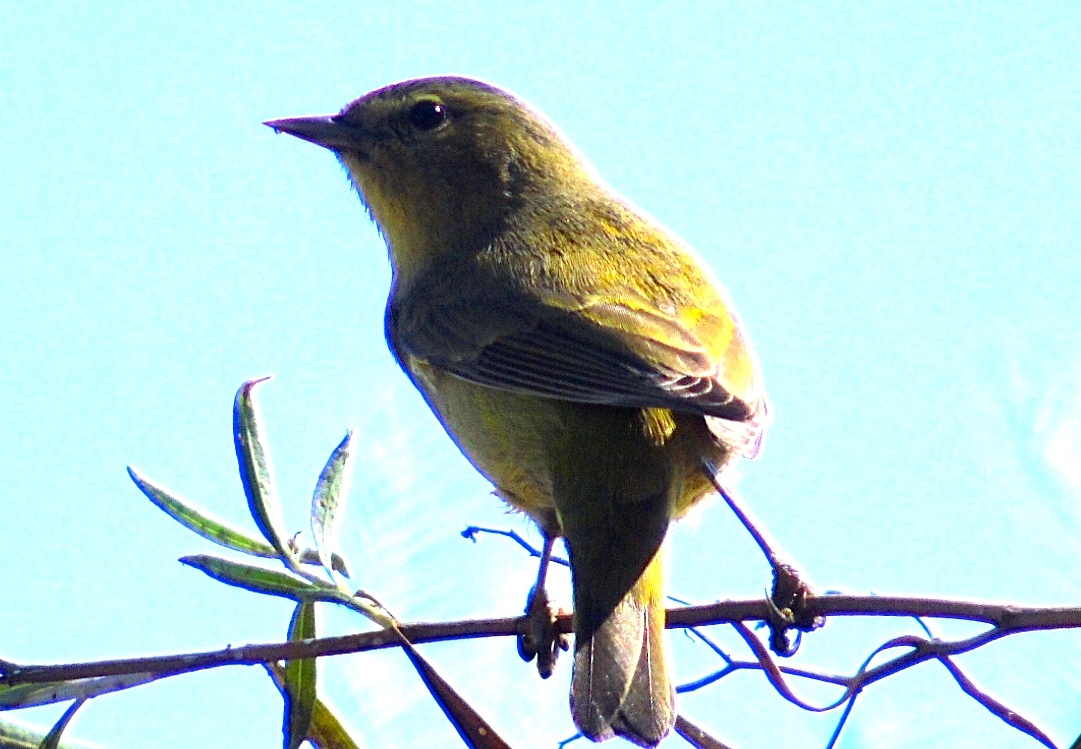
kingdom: Animalia
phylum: Chordata
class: Aves
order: Passeriformes
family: Parulidae
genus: Leiothlypis
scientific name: Leiothlypis celata
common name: Orange-crowned warbler
